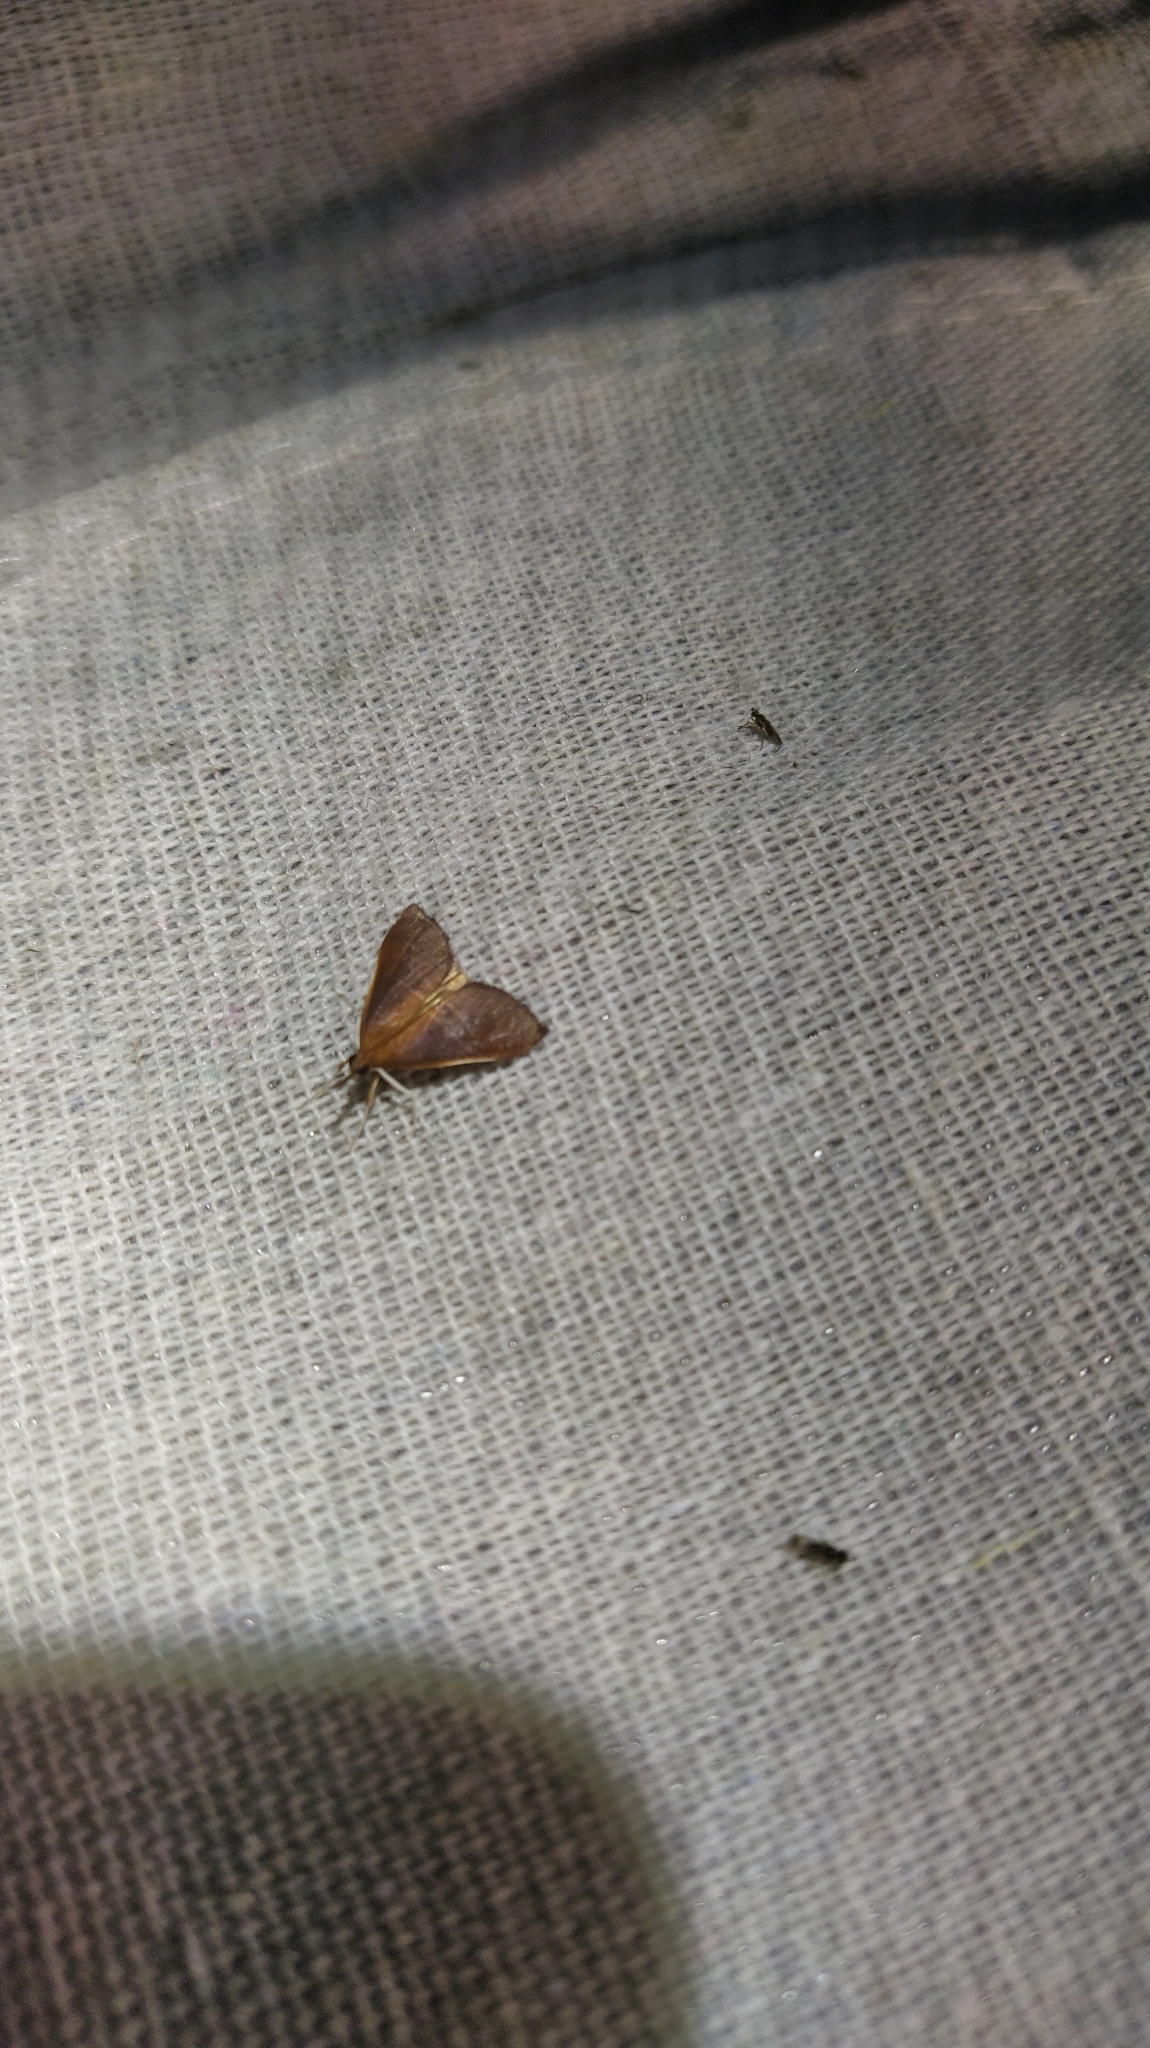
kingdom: Animalia
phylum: Arthropoda
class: Insecta
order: Lepidoptera
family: Crambidae
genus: Udea
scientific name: Udea daiclesalis
